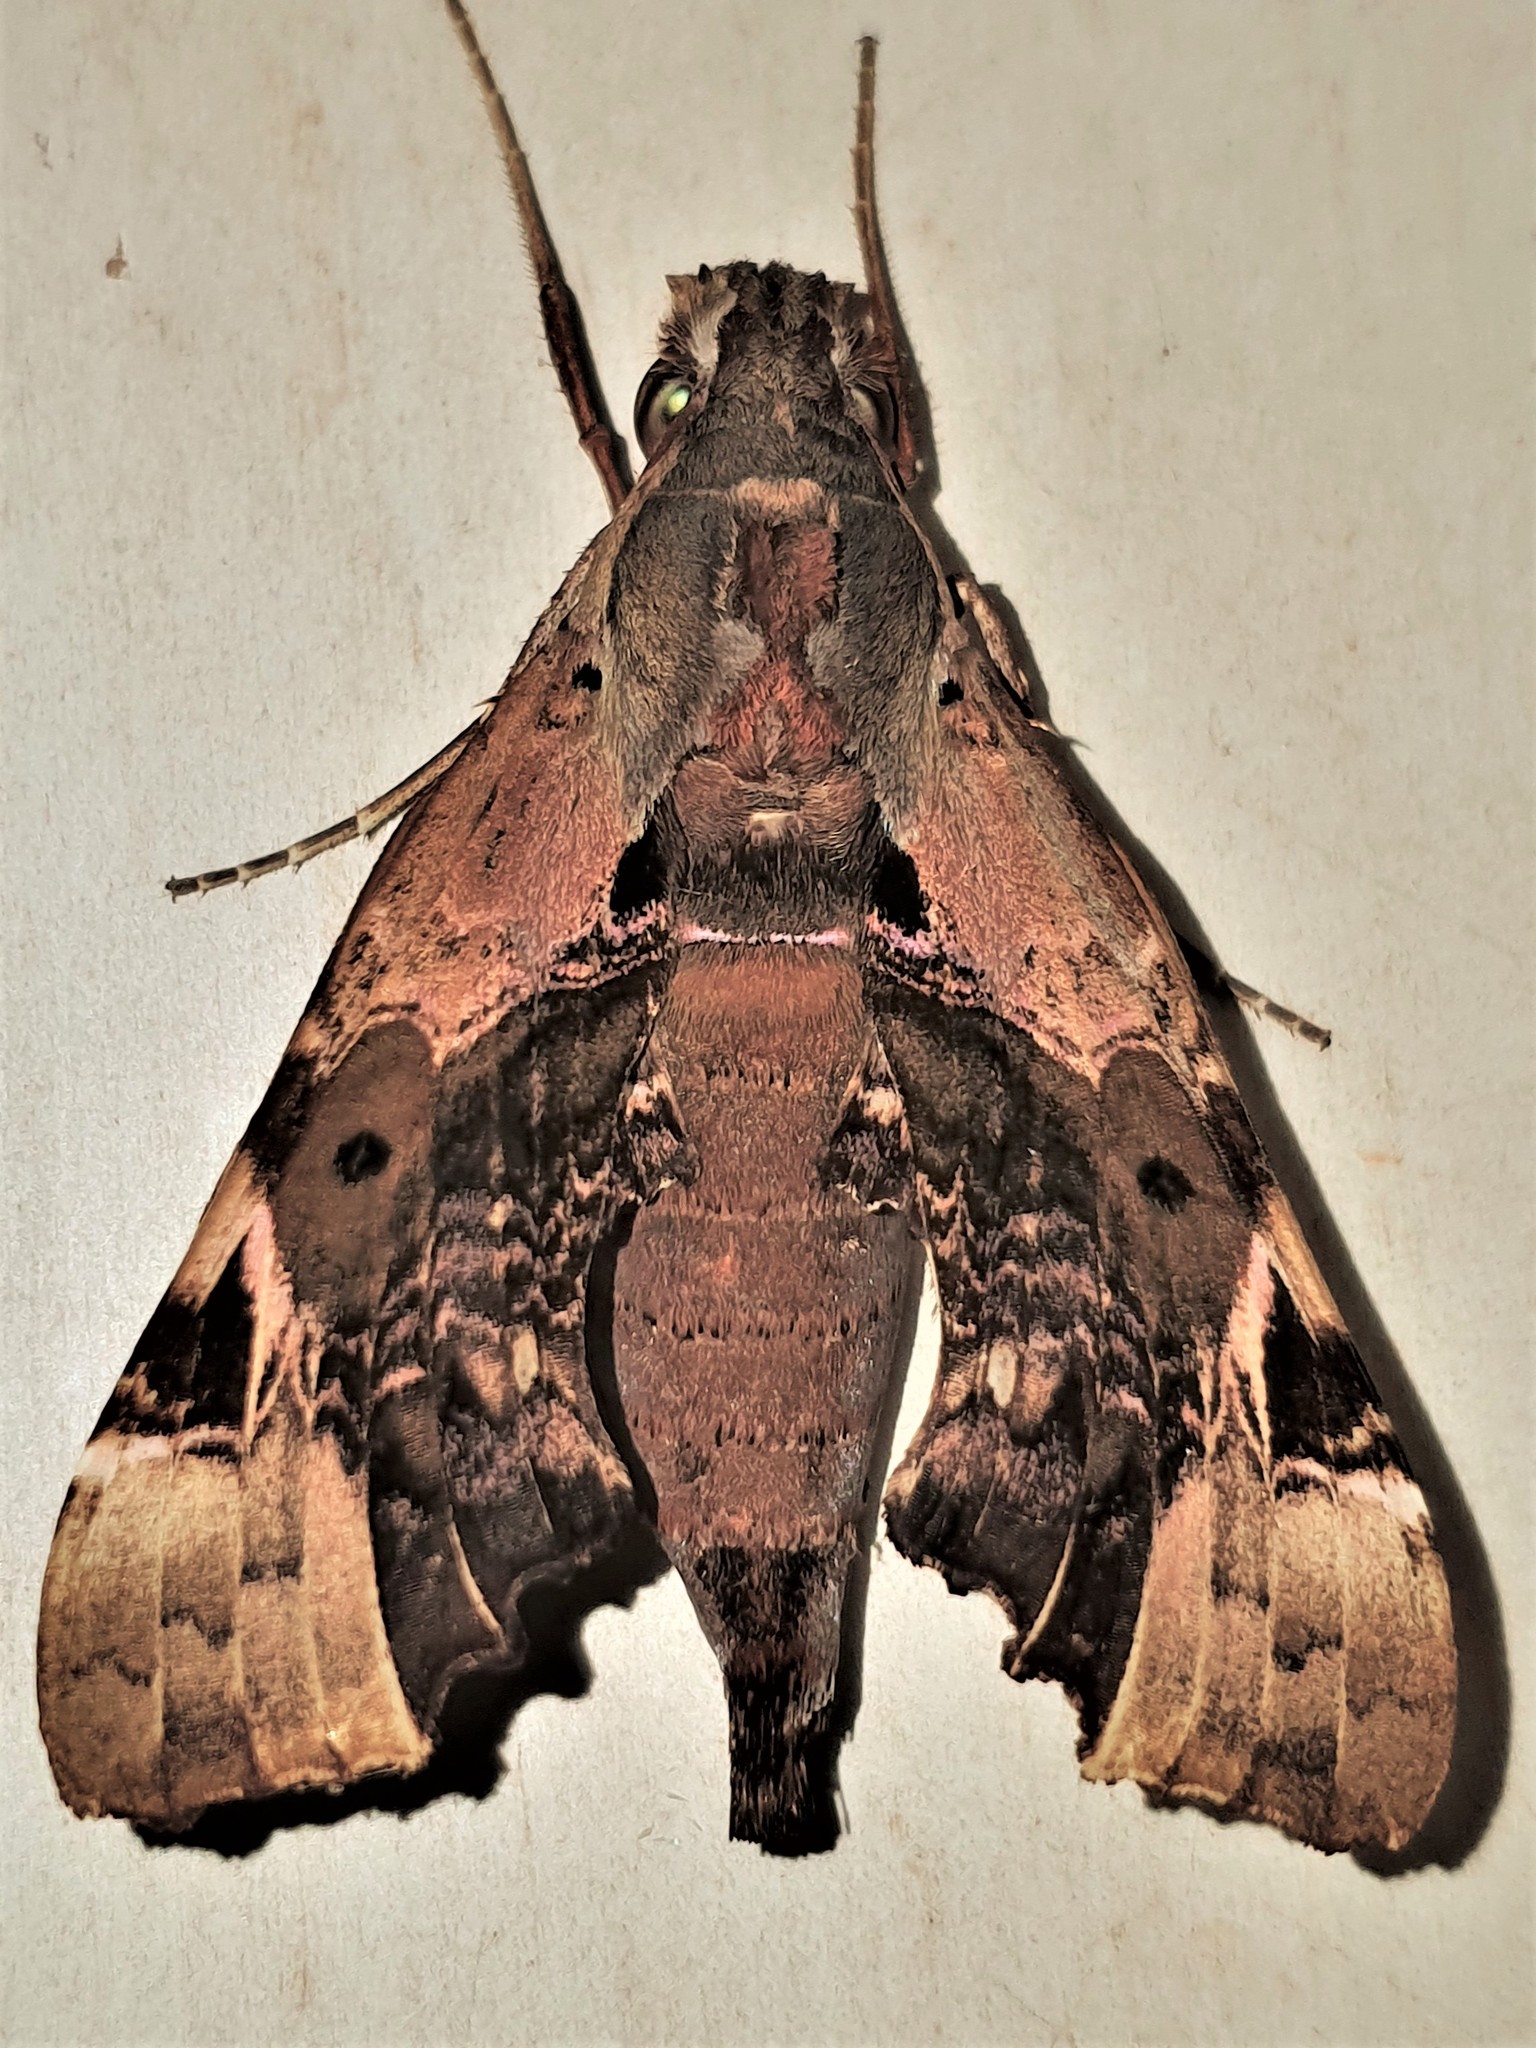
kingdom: Animalia
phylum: Arthropoda
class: Insecta
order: Lepidoptera
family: Sphingidae
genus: Unzela
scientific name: Unzela pronoe
